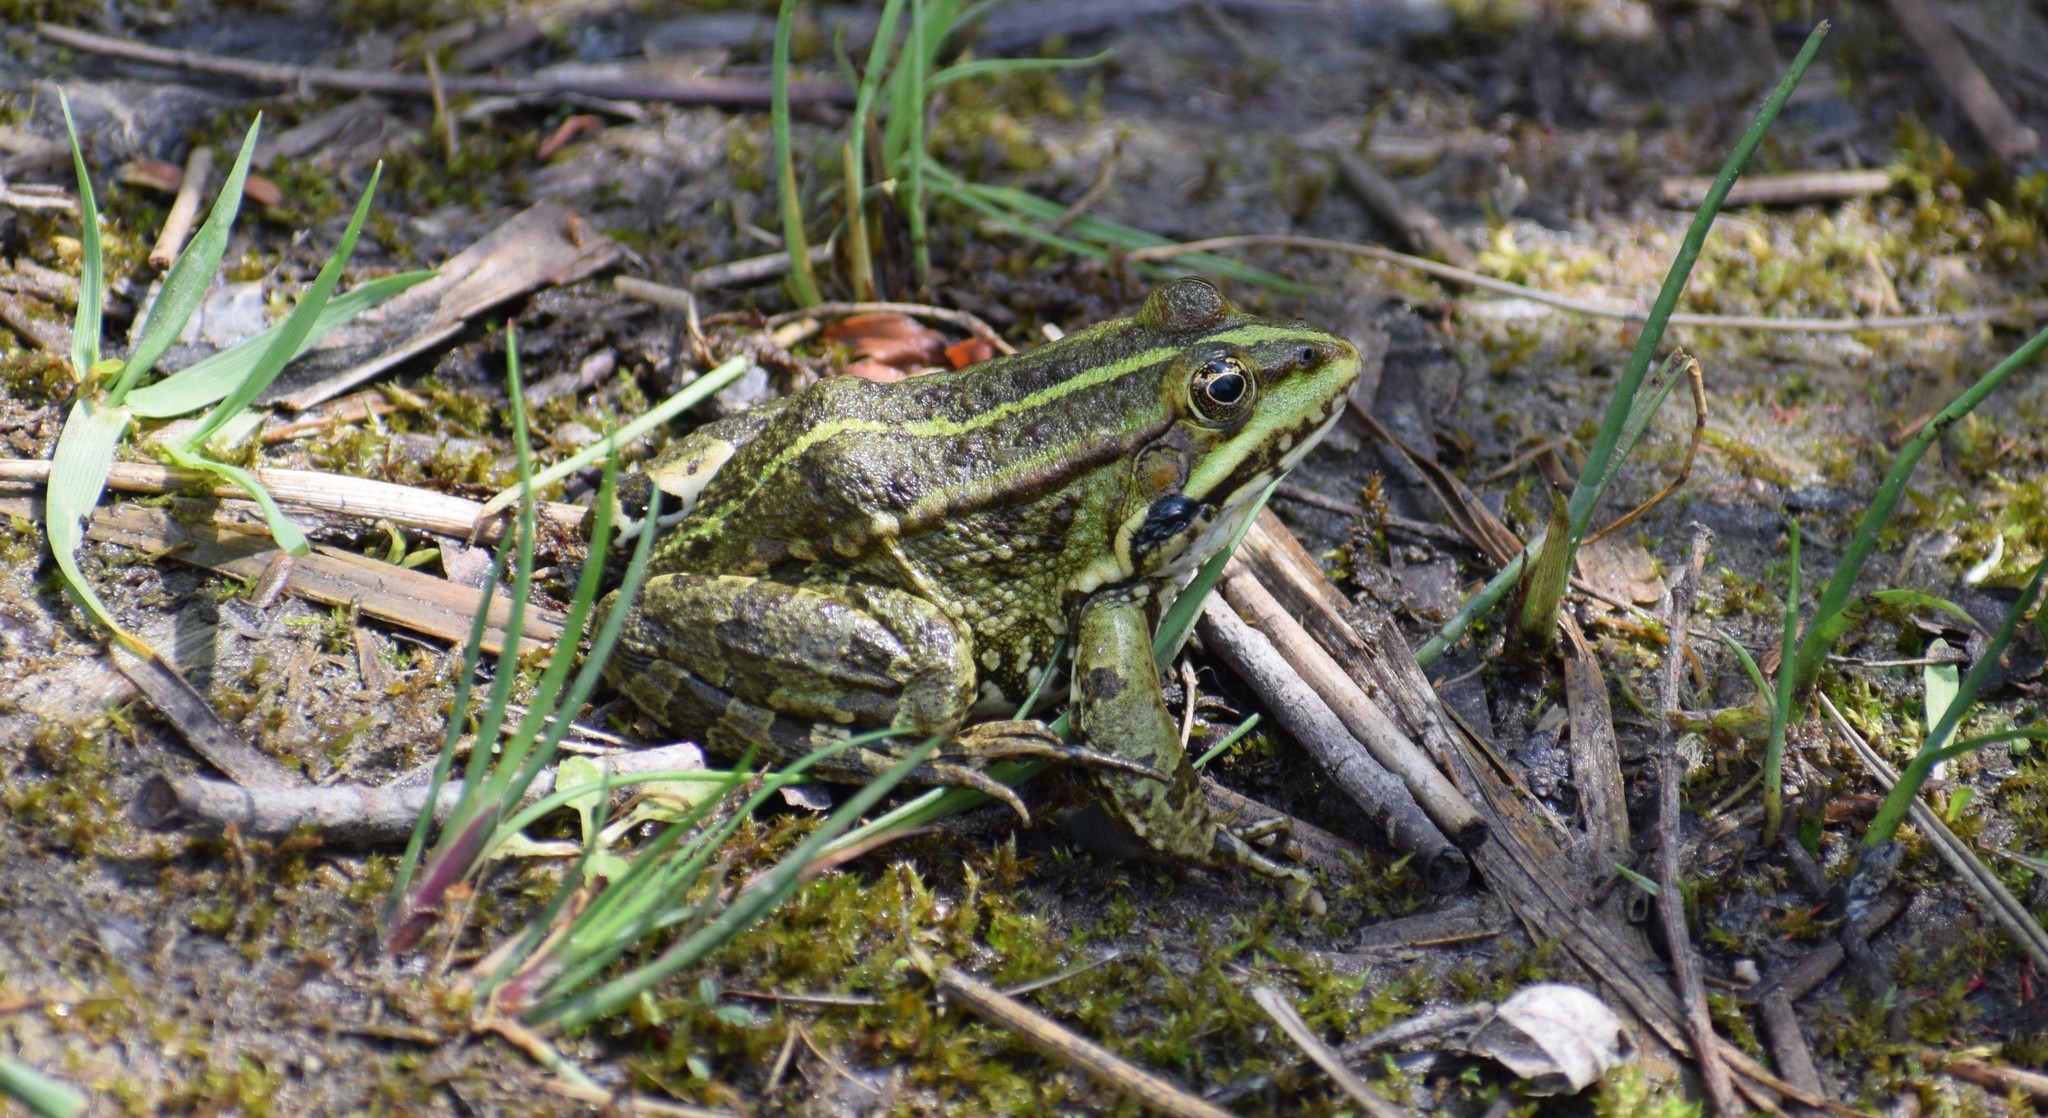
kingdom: Animalia
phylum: Chordata
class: Amphibia
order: Anura
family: Ranidae
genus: Pelophylax
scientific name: Pelophylax
